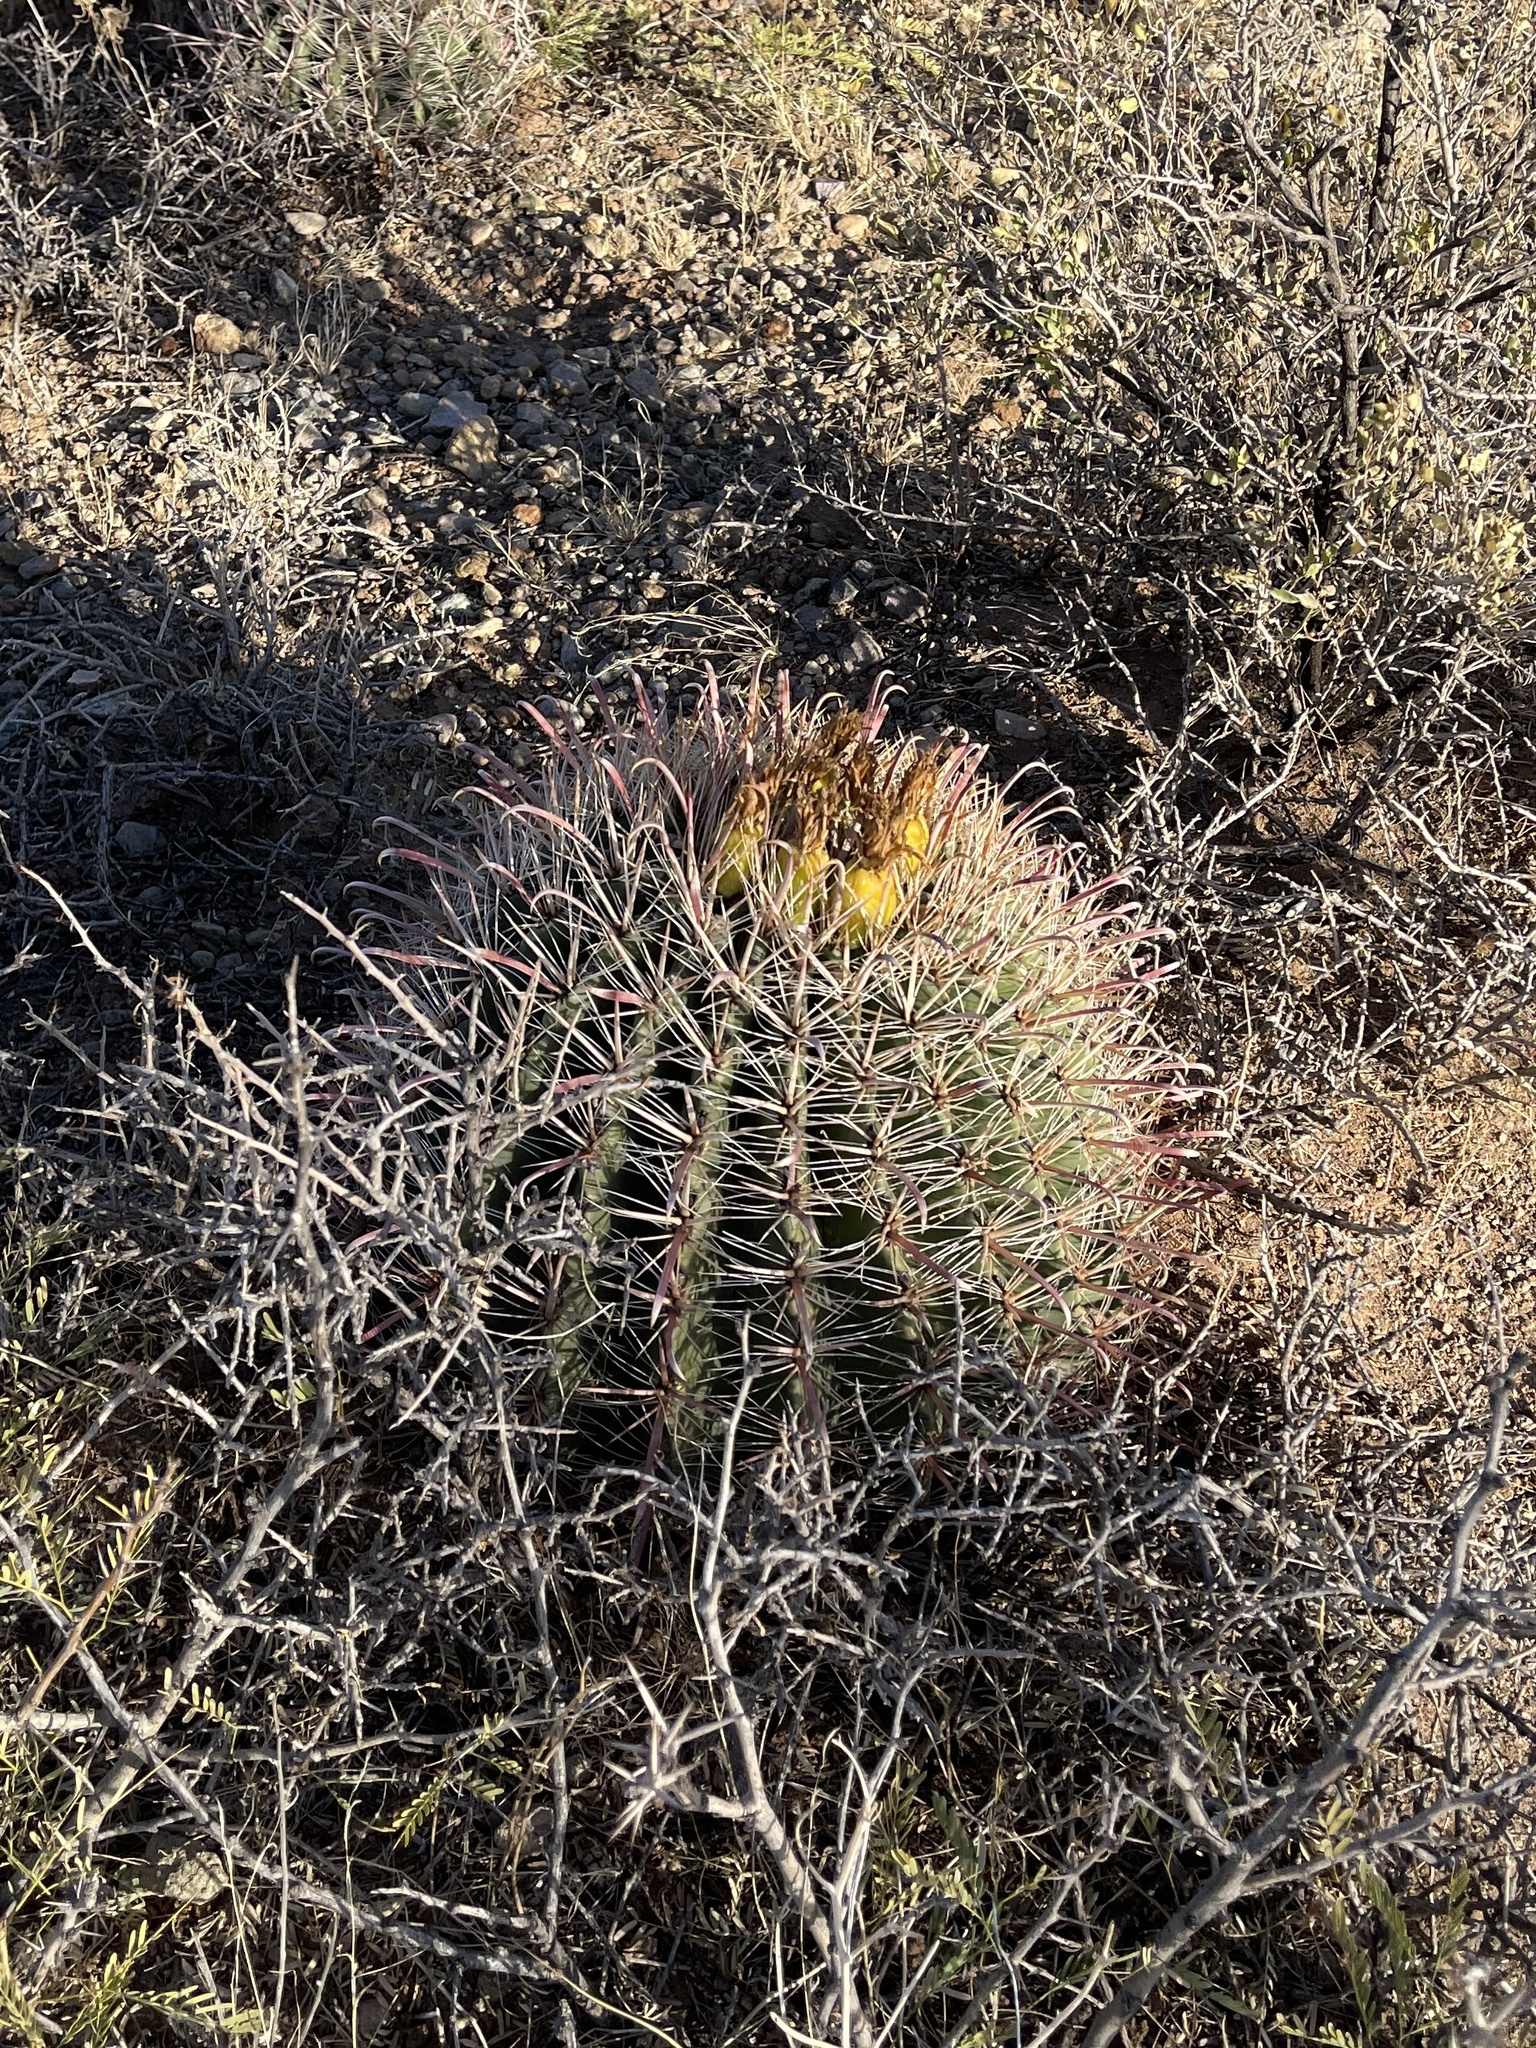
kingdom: Plantae
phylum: Tracheophyta
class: Magnoliopsida
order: Caryophyllales
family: Cactaceae
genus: Ferocactus
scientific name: Ferocactus wislizeni
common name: Candy barrel cactus
